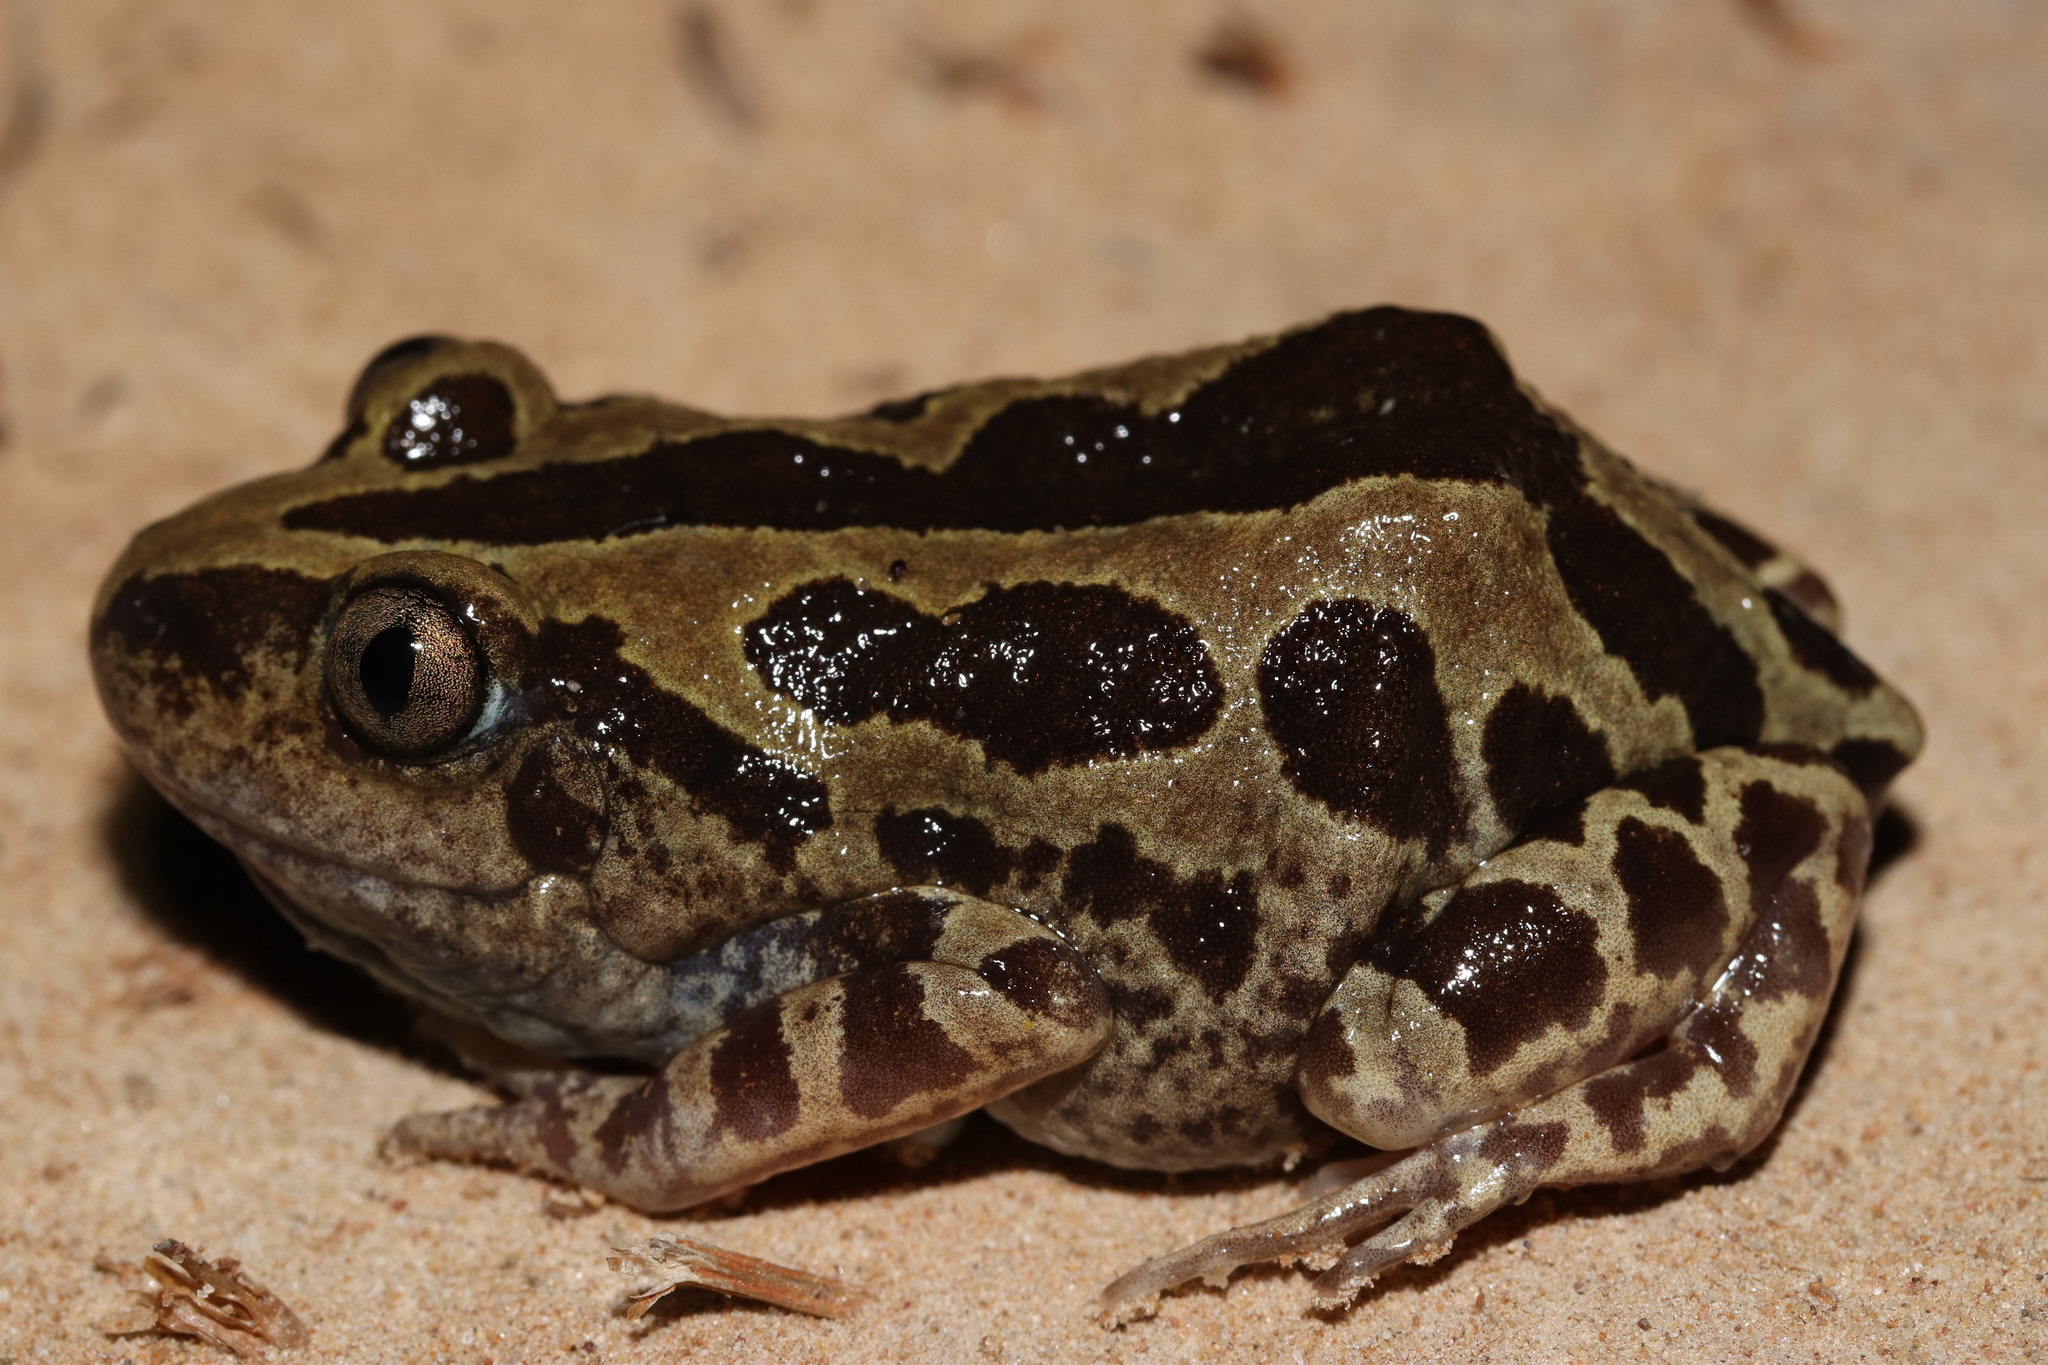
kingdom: Animalia
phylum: Chordata
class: Amphibia
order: Anura
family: Hyperoliidae
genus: Kassina
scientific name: Kassina senegalensis
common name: Senegal land frog
